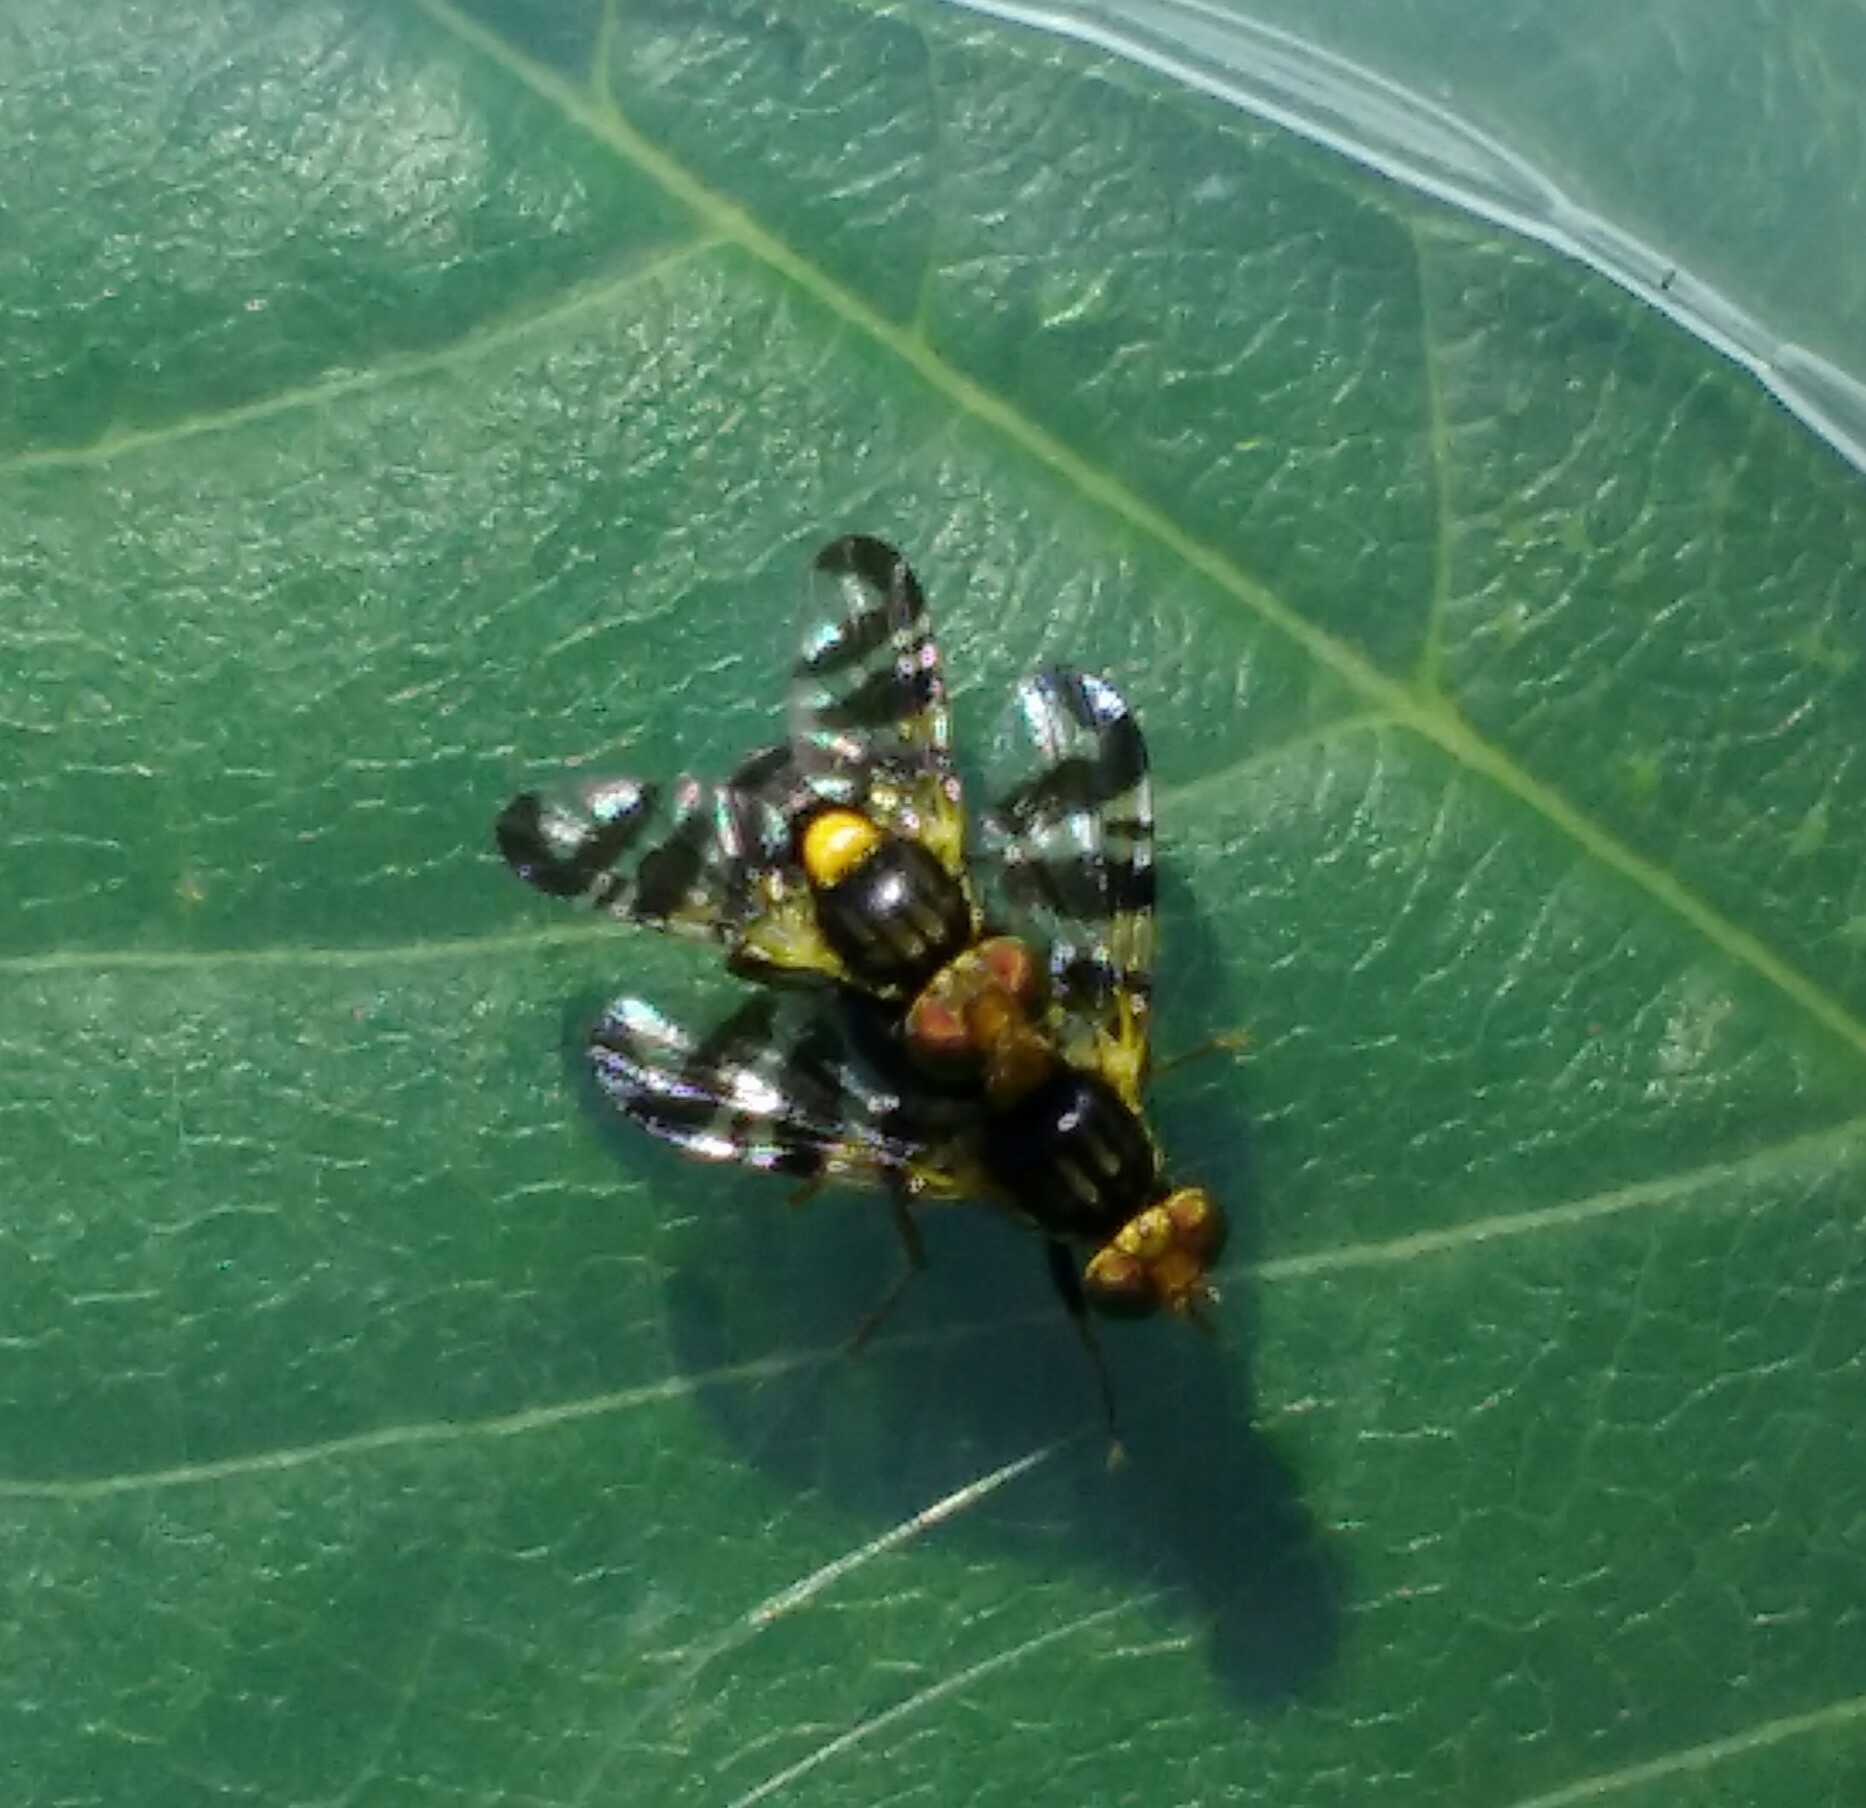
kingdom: Animalia
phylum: Arthropoda
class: Insecta
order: Diptera
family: Tephritidae
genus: Rhagoletis
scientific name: Rhagoletis cerasi
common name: European cherry fruit fly
